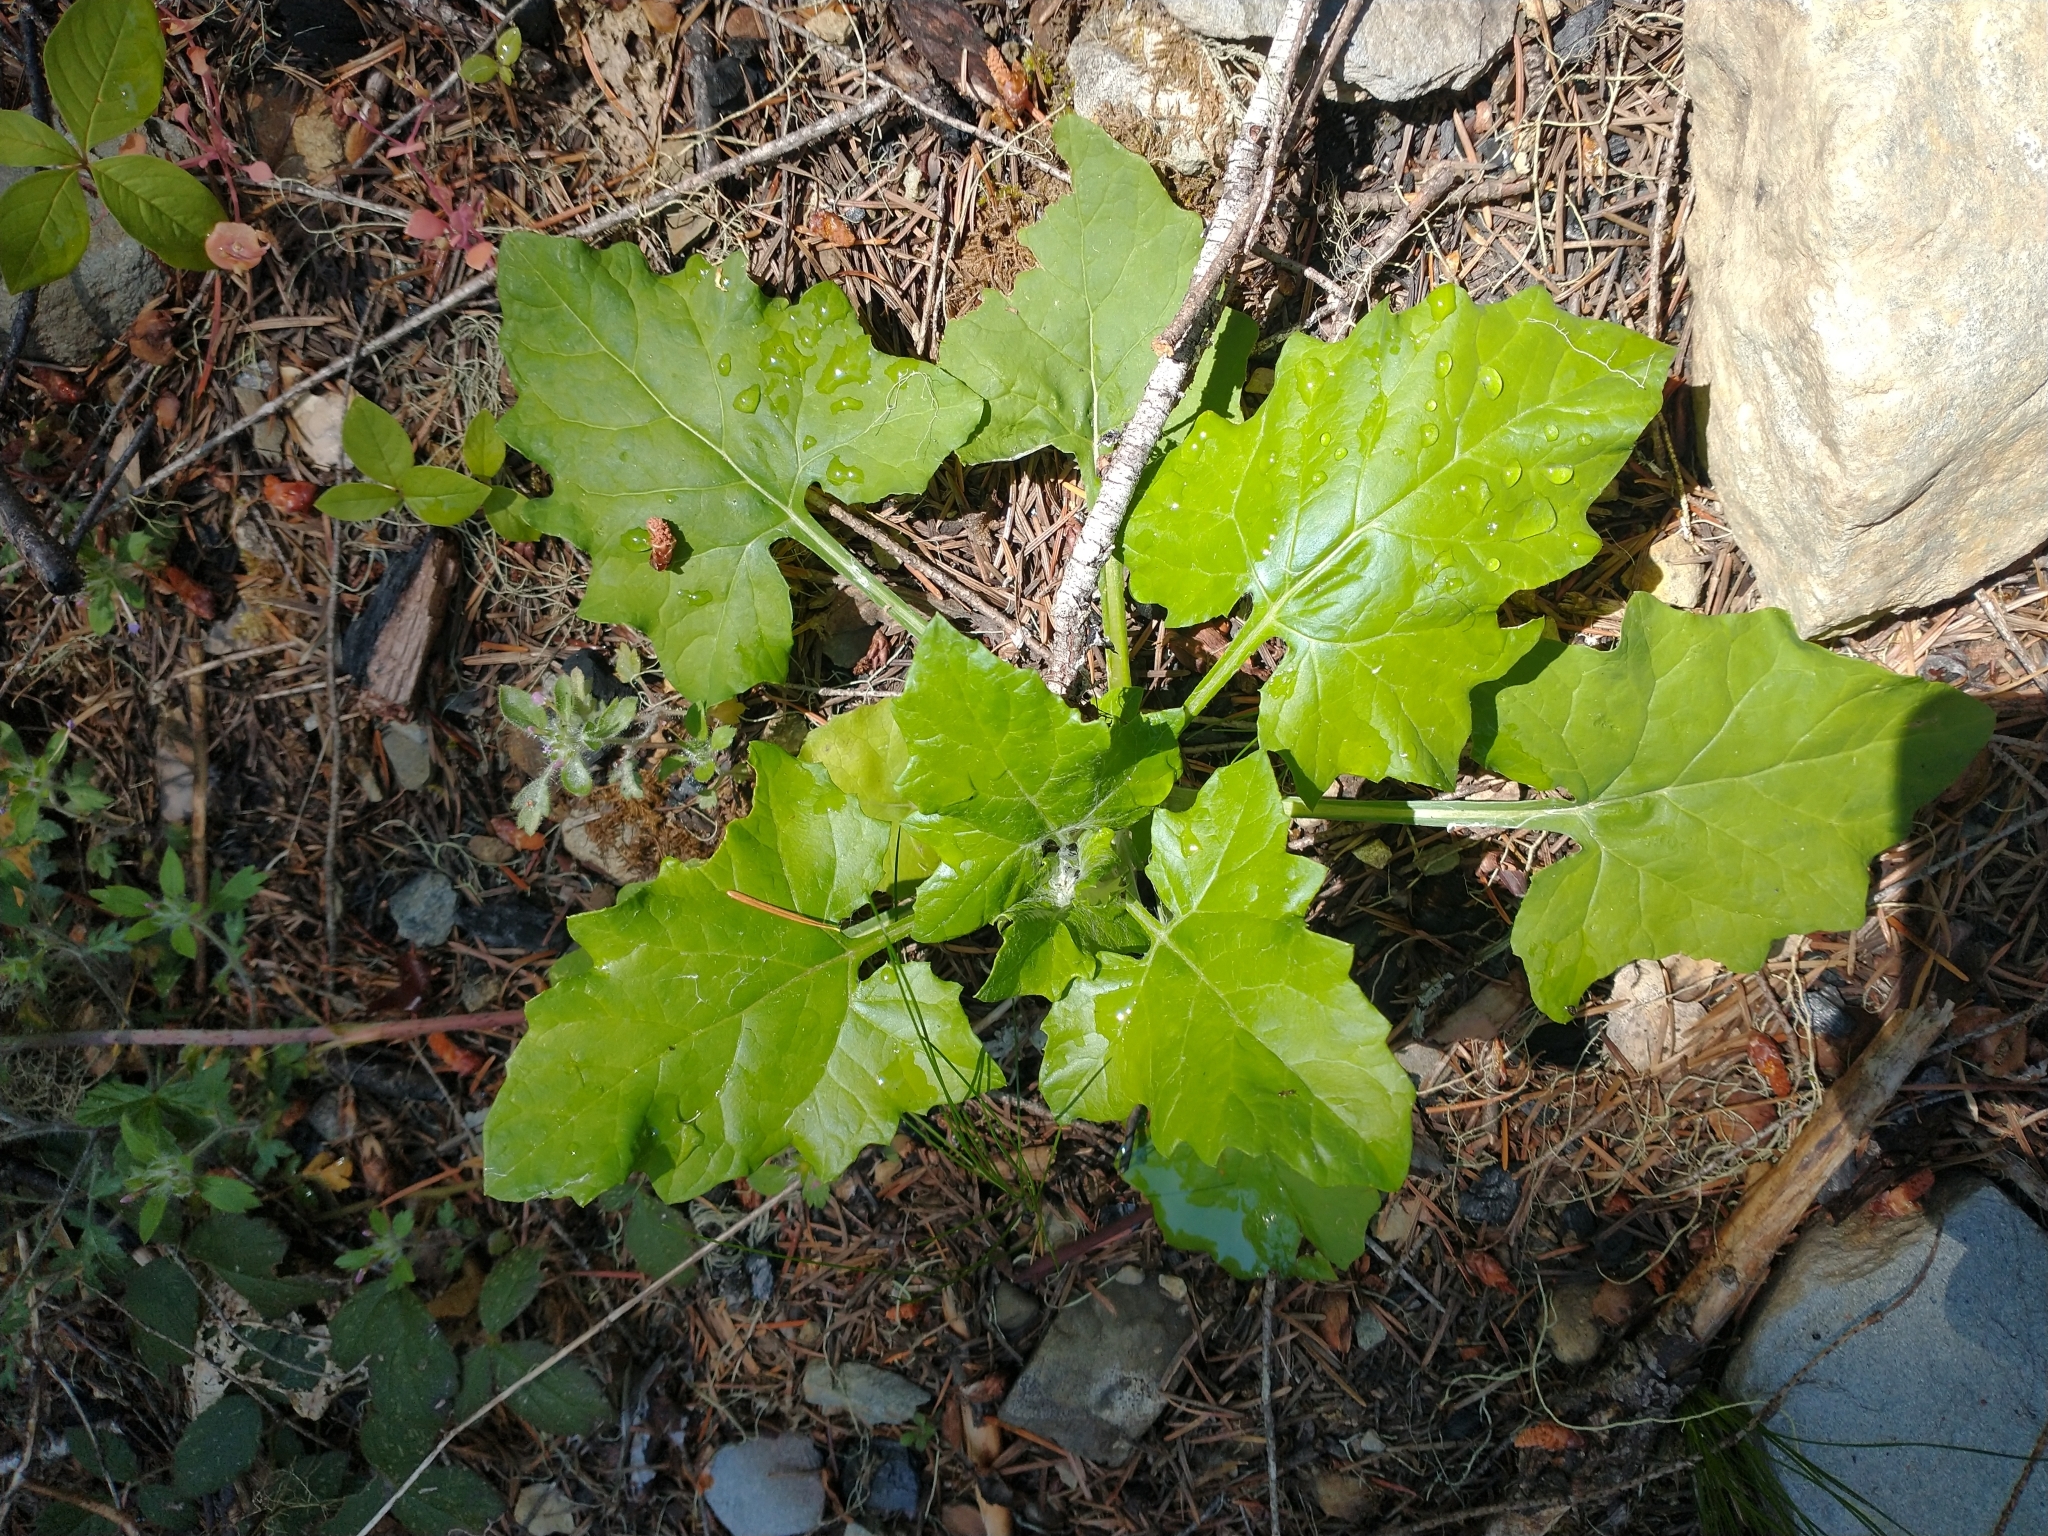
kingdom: Plantae
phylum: Tracheophyta
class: Magnoliopsida
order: Asterales
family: Asteraceae
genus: Adenocaulon
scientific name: Adenocaulon bicolor
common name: Trailplant
